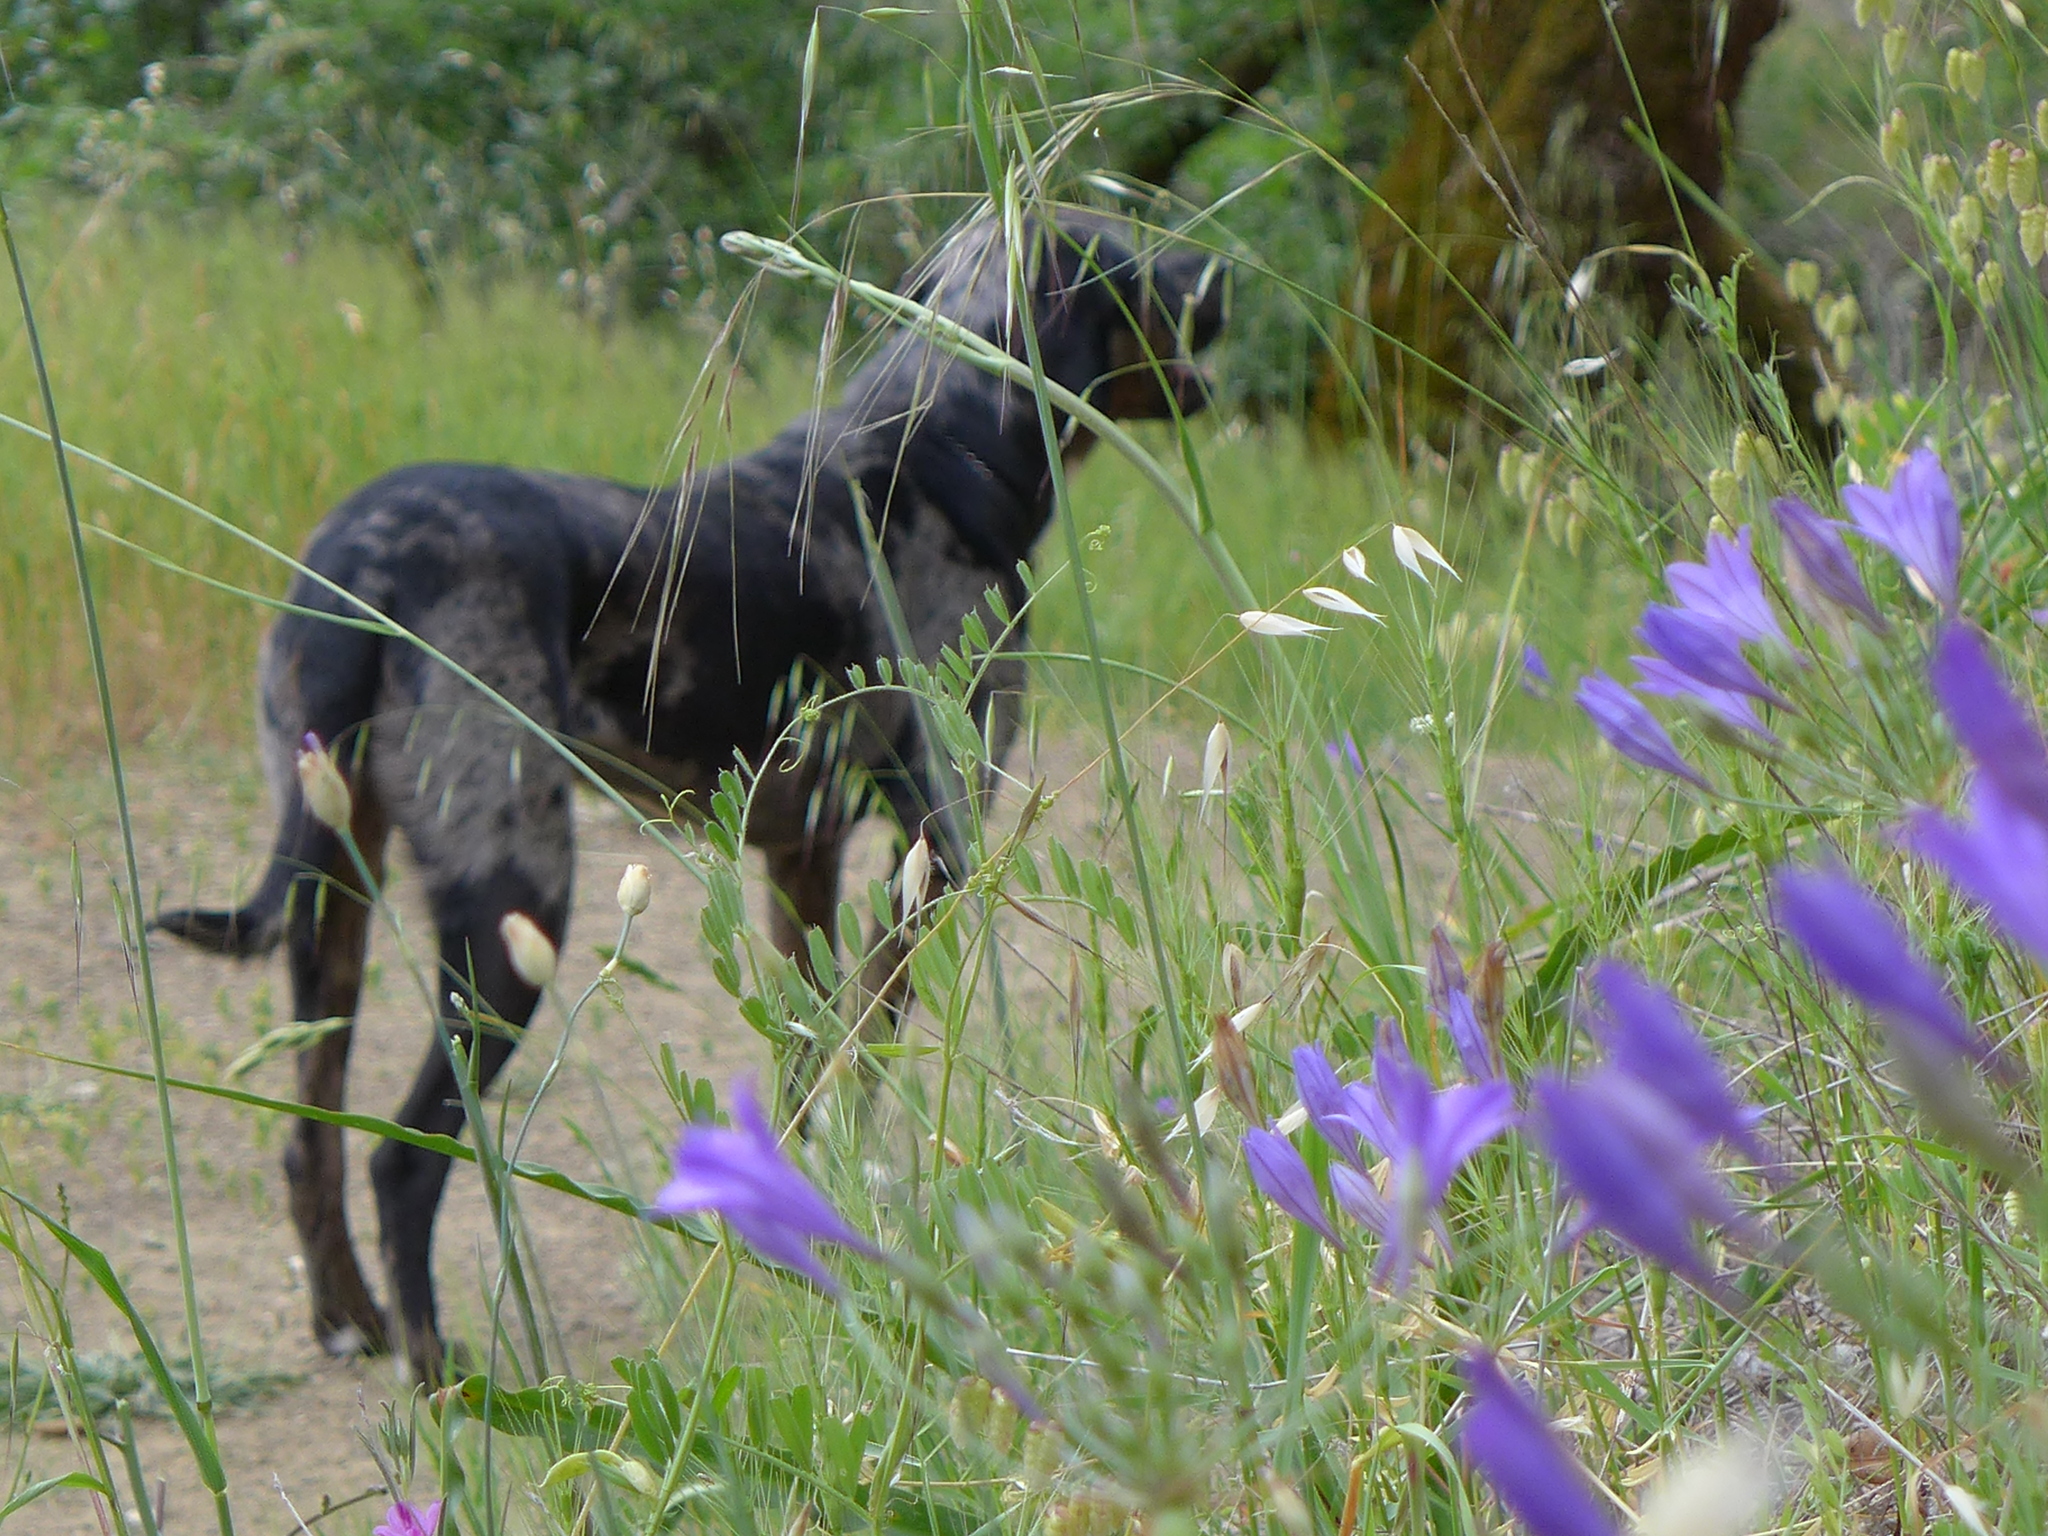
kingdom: Plantae
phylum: Tracheophyta
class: Liliopsida
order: Asparagales
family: Asparagaceae
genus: Triteleia
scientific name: Triteleia laxa
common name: Triplet-lily
